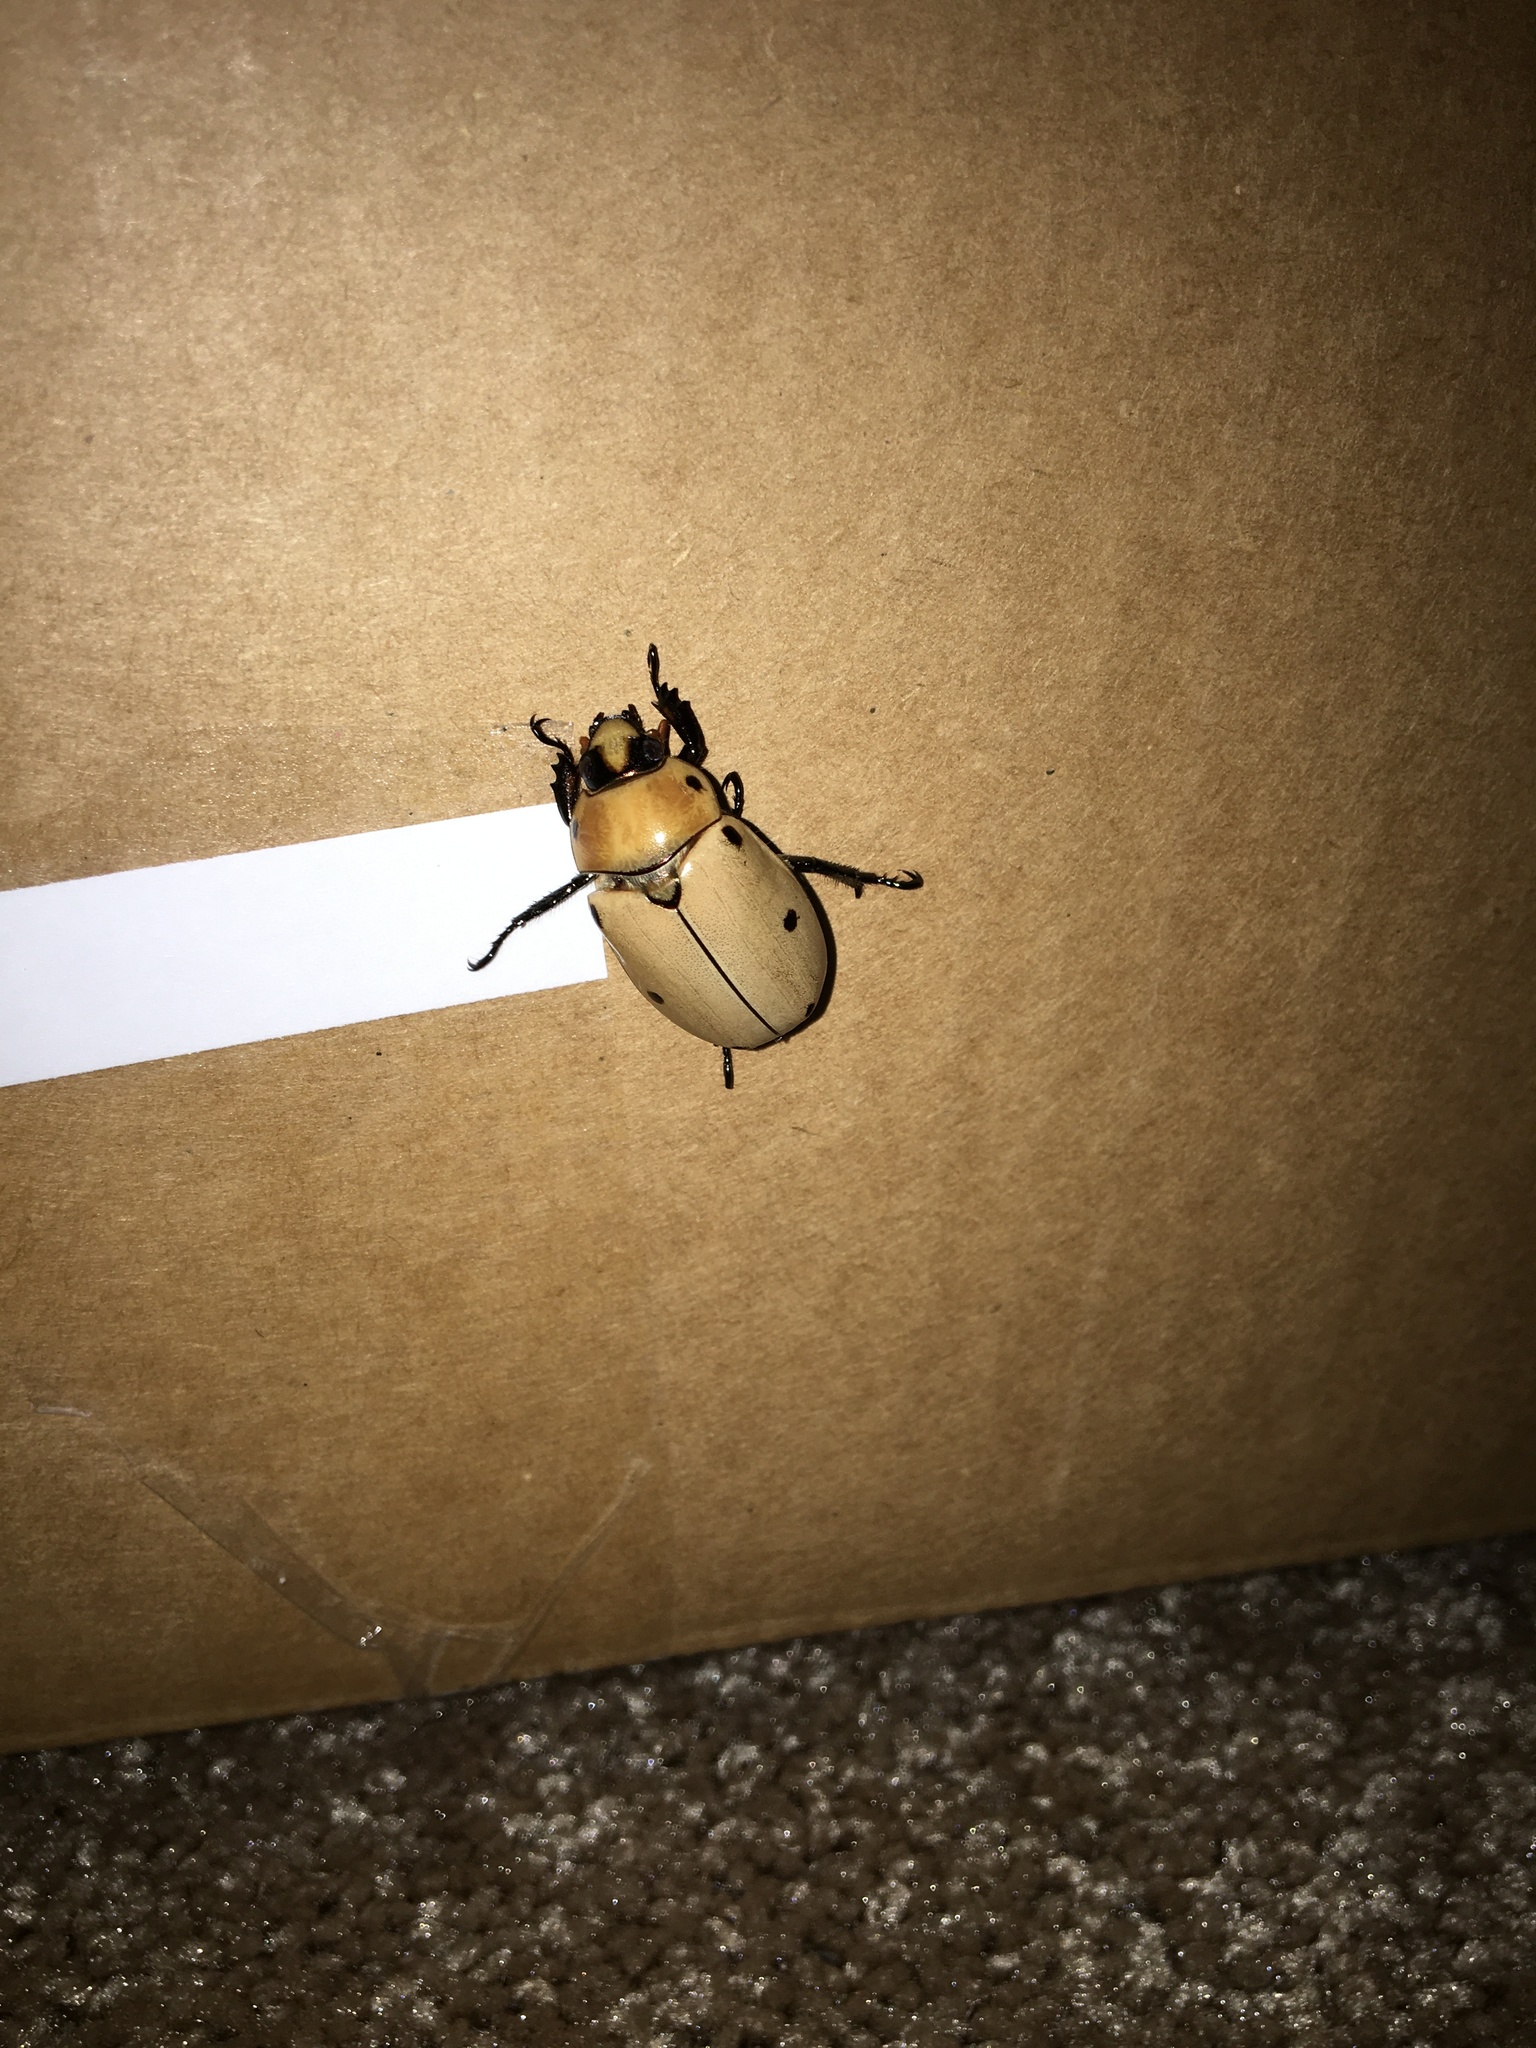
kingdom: Animalia
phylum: Arthropoda
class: Insecta
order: Coleoptera
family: Scarabaeidae
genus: Pelidnota
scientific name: Pelidnota punctata
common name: Grapevine beetle
